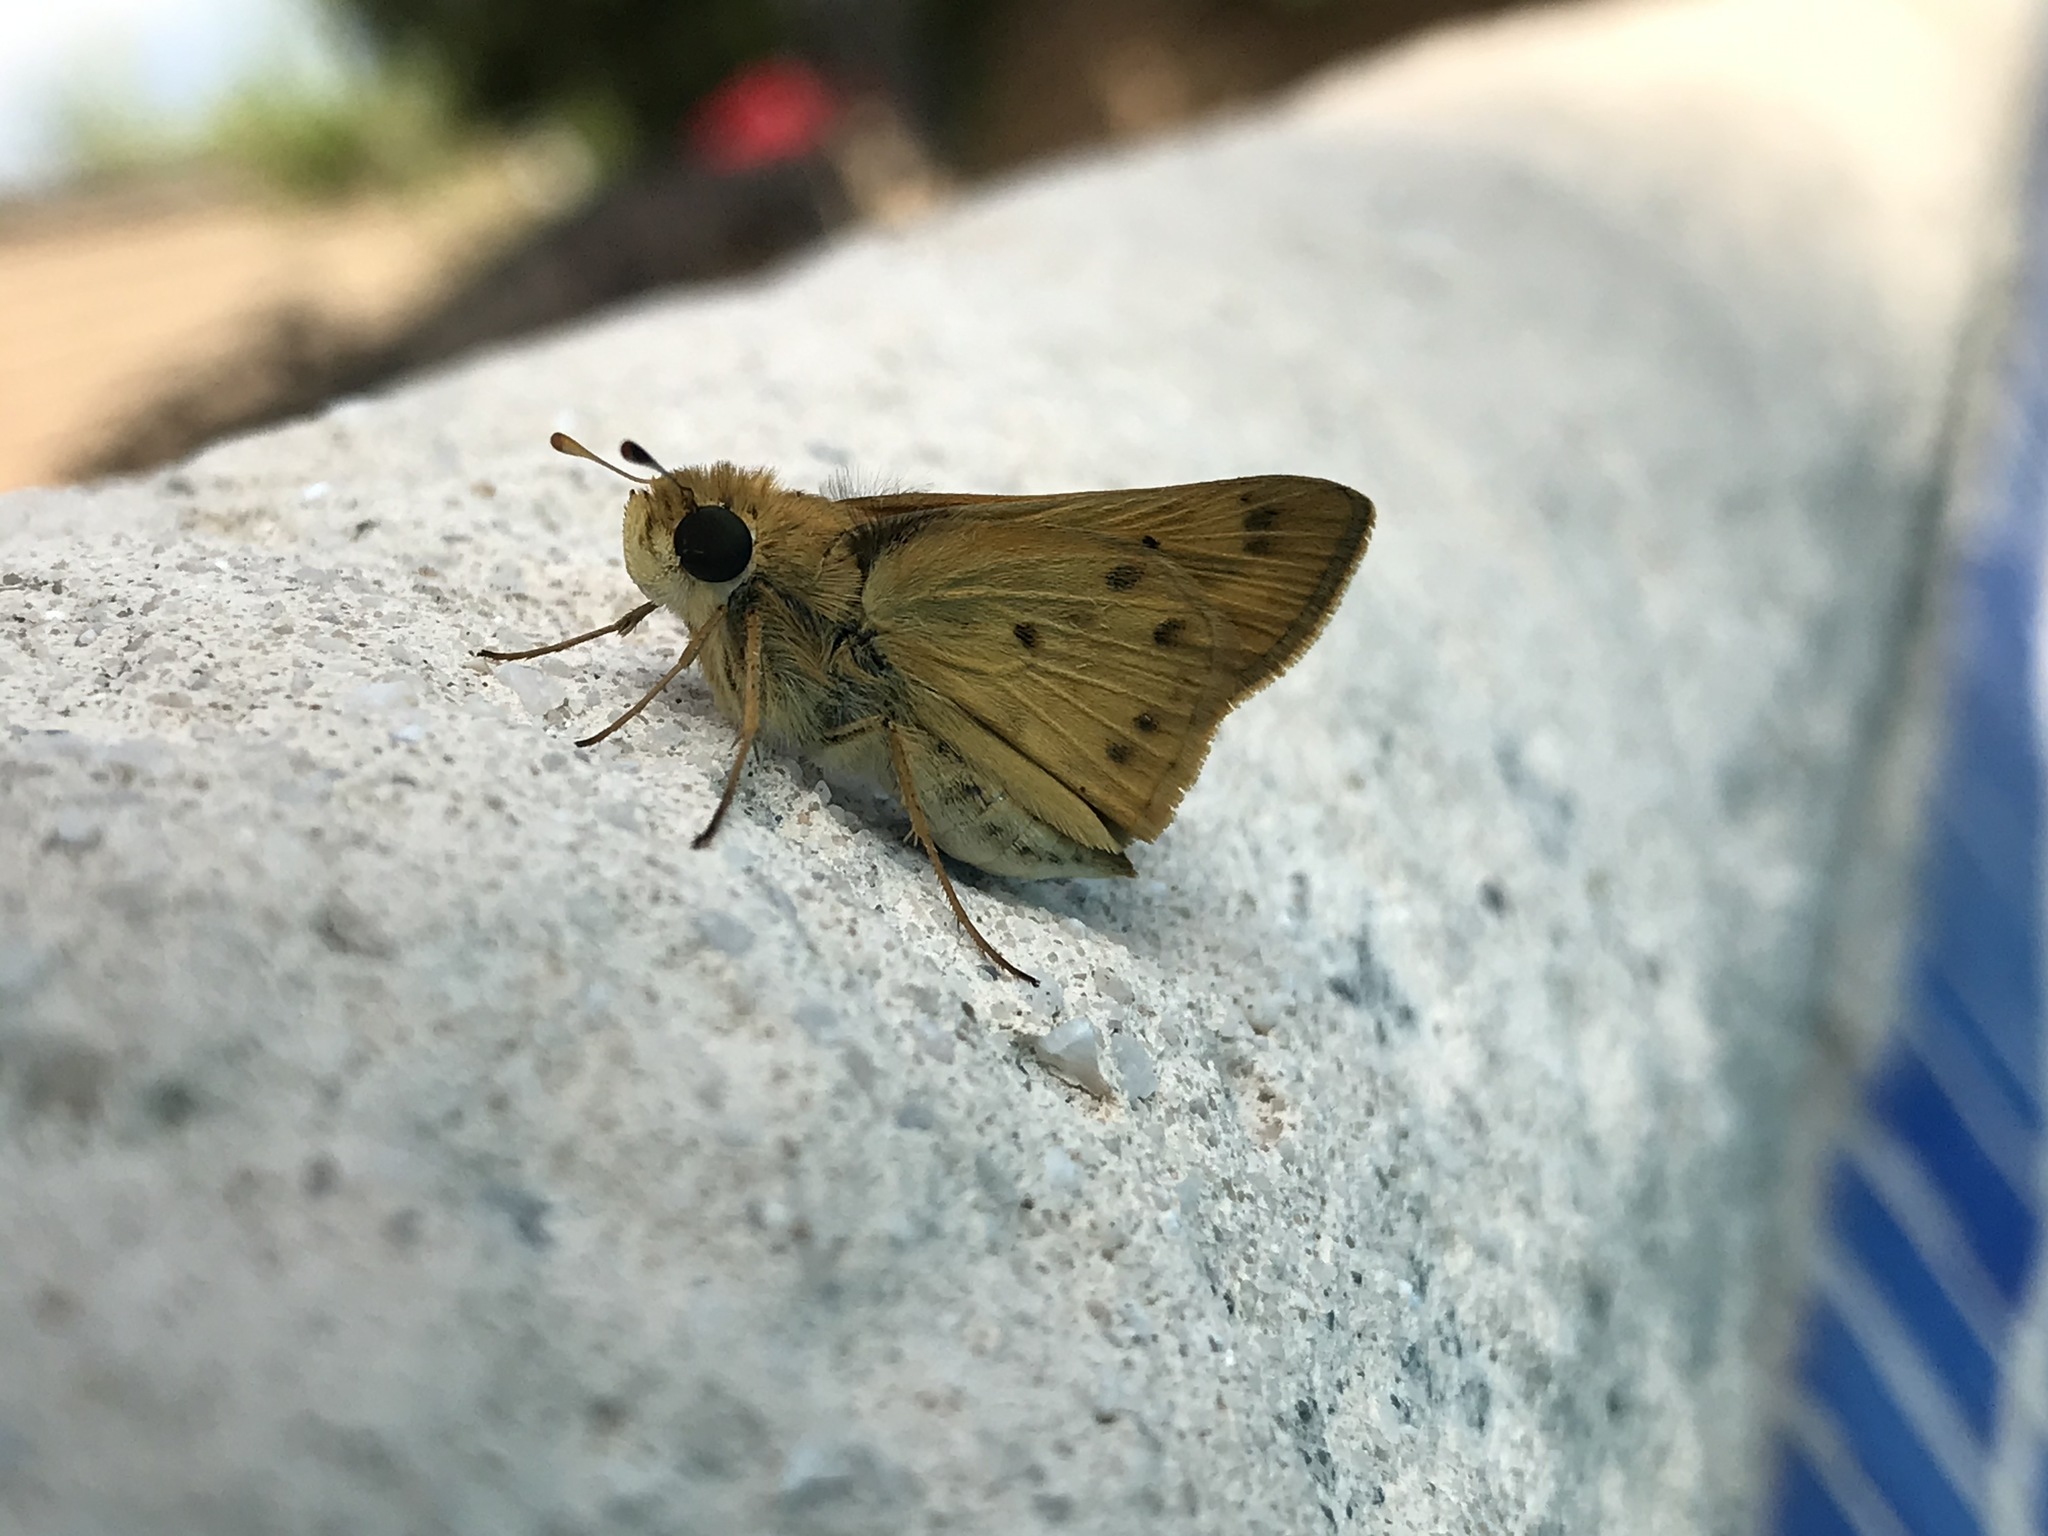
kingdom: Animalia
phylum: Arthropoda
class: Insecta
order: Lepidoptera
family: Hesperiidae
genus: Polites
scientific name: Polites vibex
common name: Whirlabout
